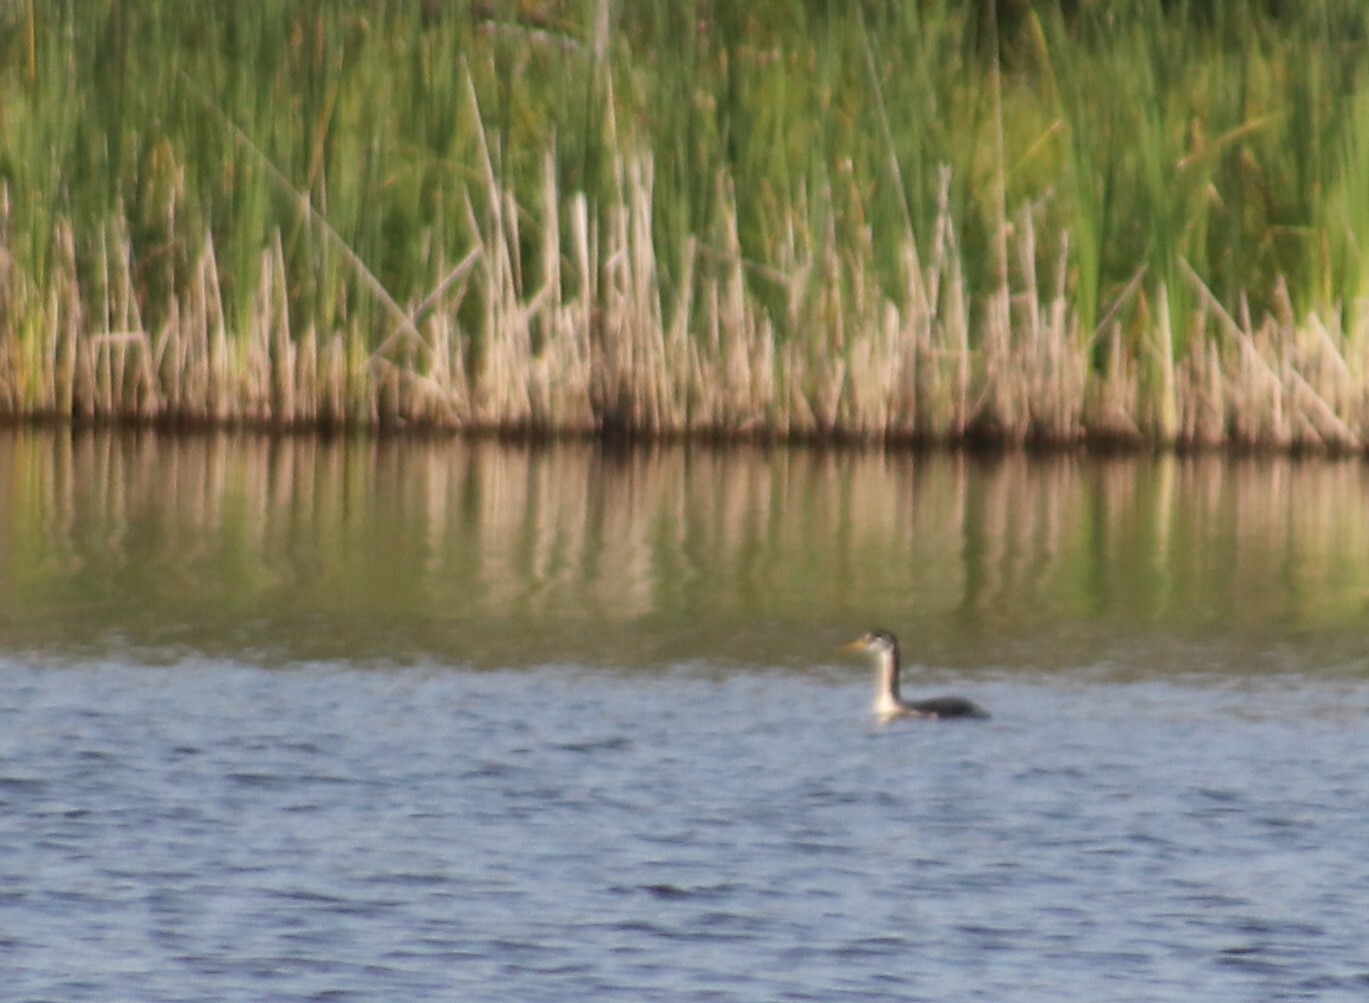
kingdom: Animalia
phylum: Chordata
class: Aves
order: Podicipediformes
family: Podicipedidae
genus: Podiceps
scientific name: Podiceps grisegena
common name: Red-necked grebe
